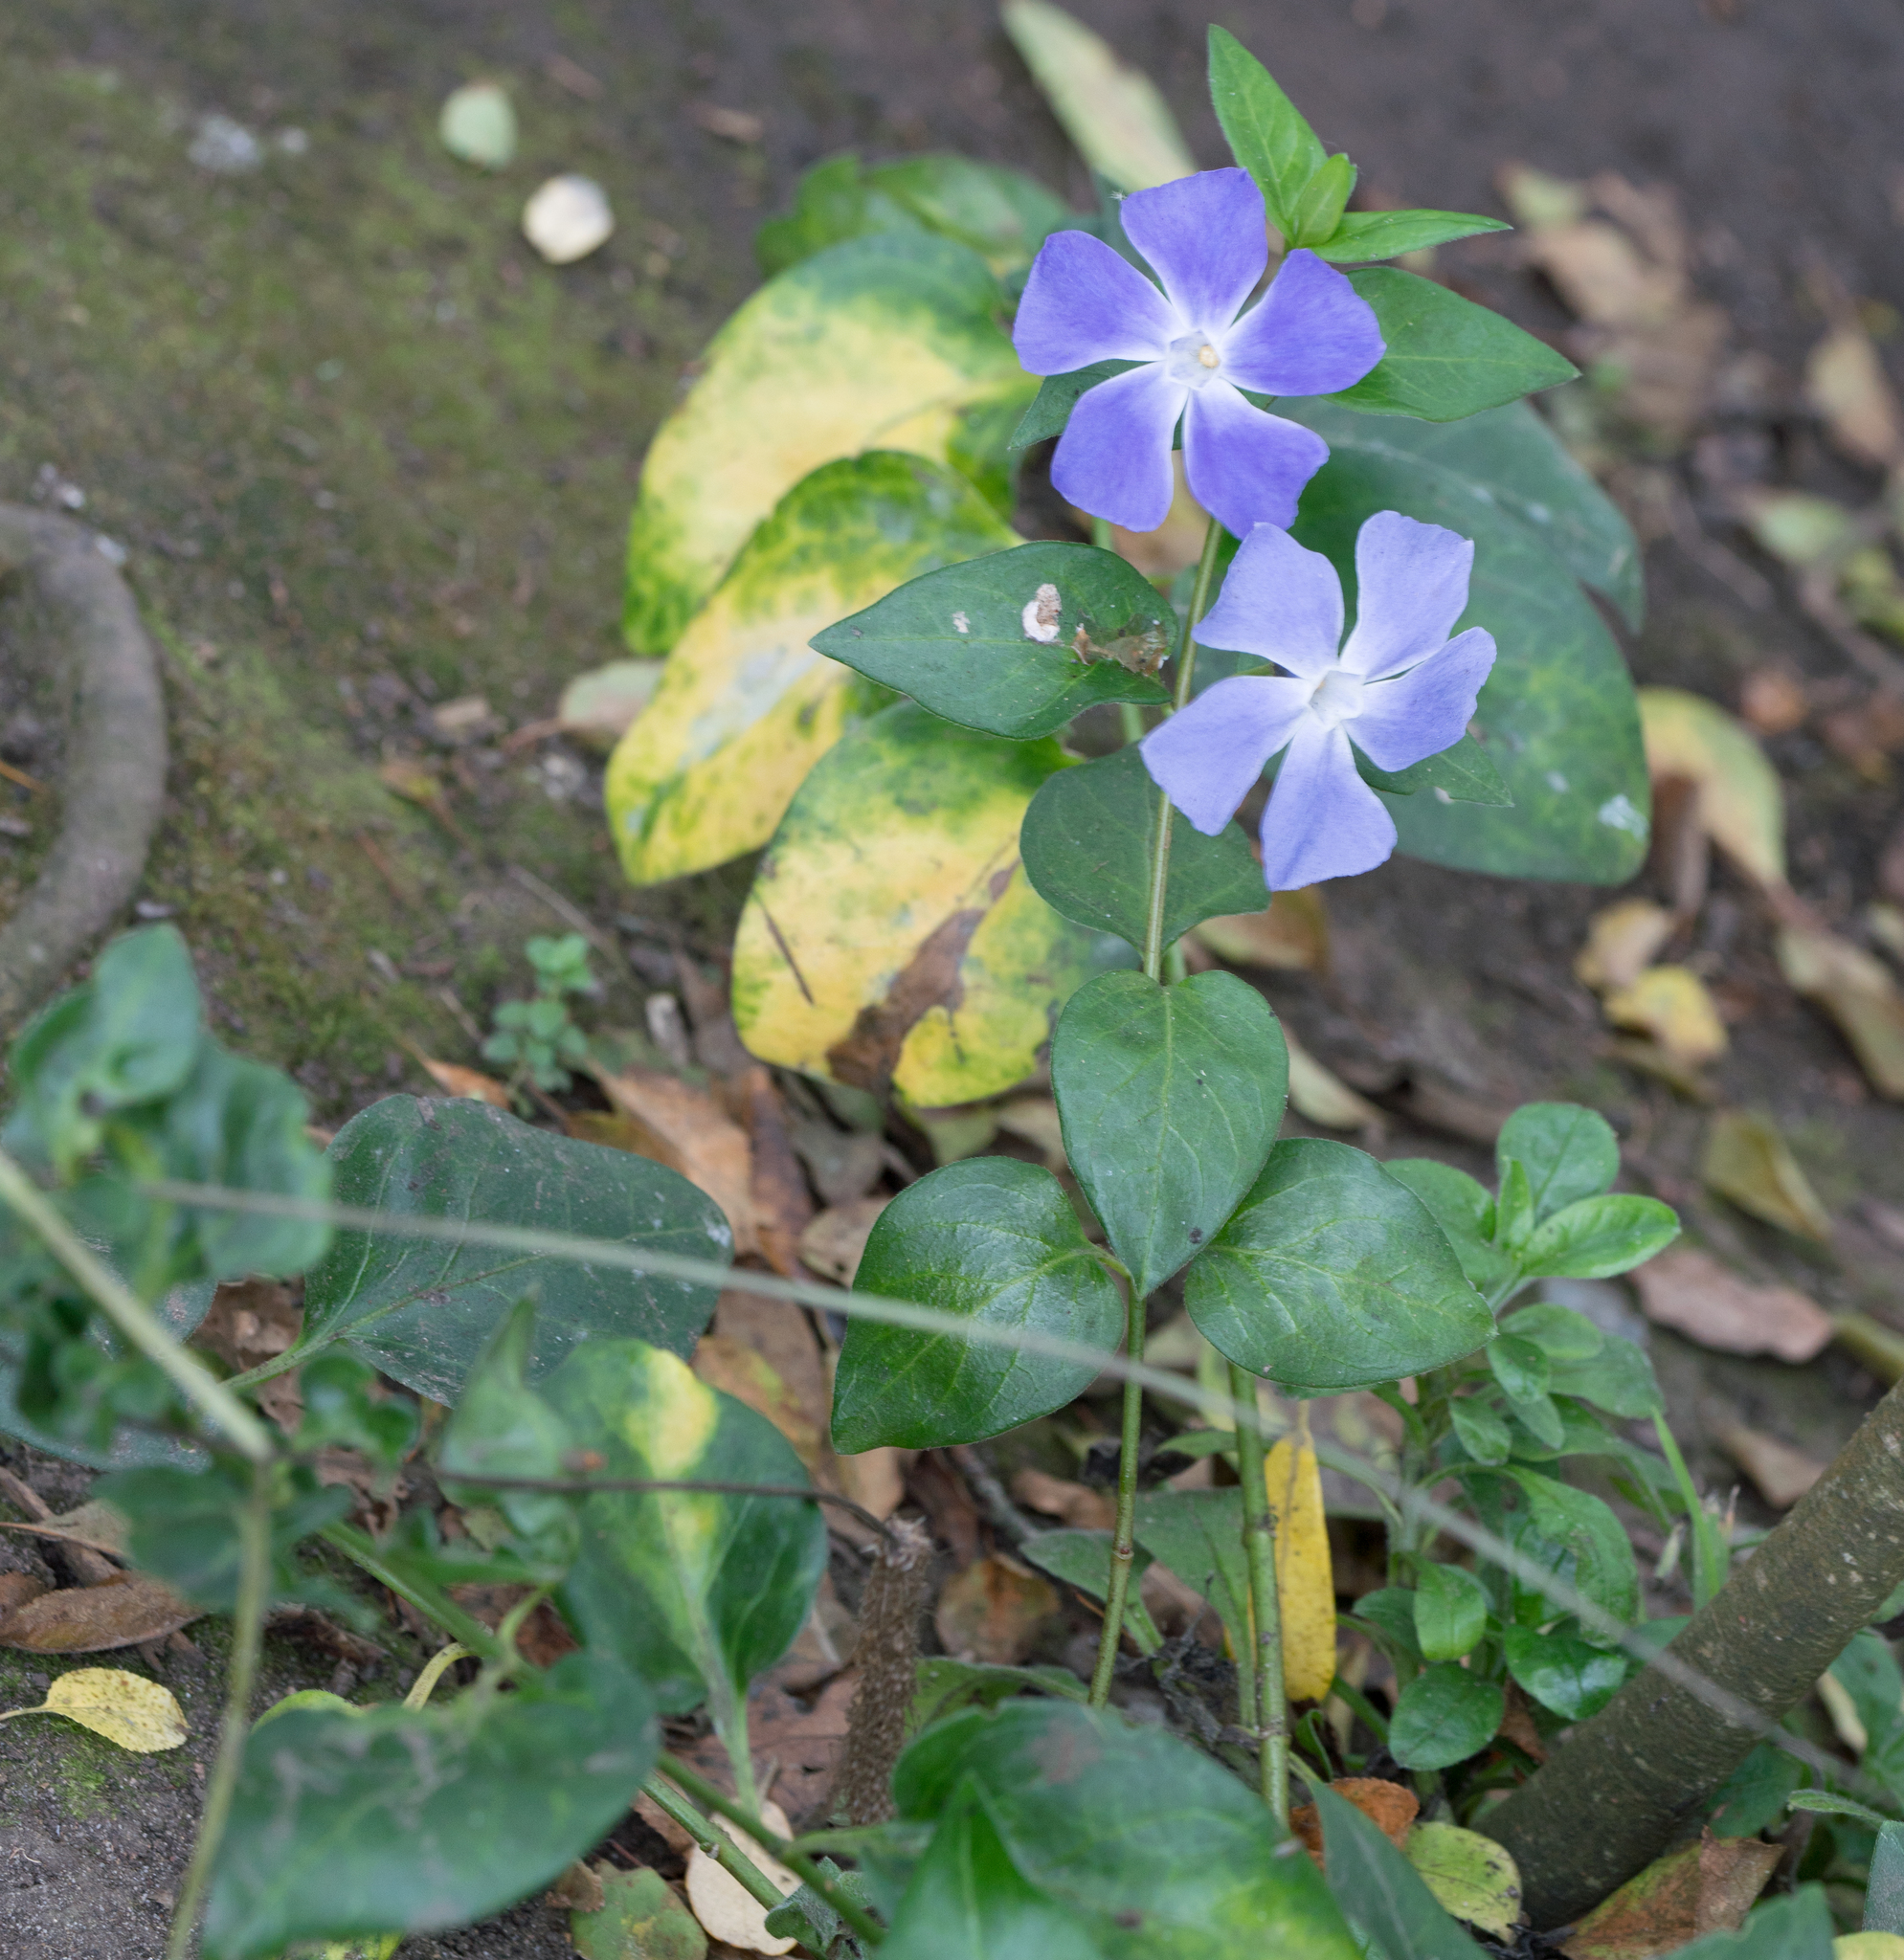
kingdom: Plantae
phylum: Tracheophyta
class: Magnoliopsida
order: Gentianales
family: Apocynaceae
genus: Vinca
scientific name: Vinca major
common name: Greater periwinkle
